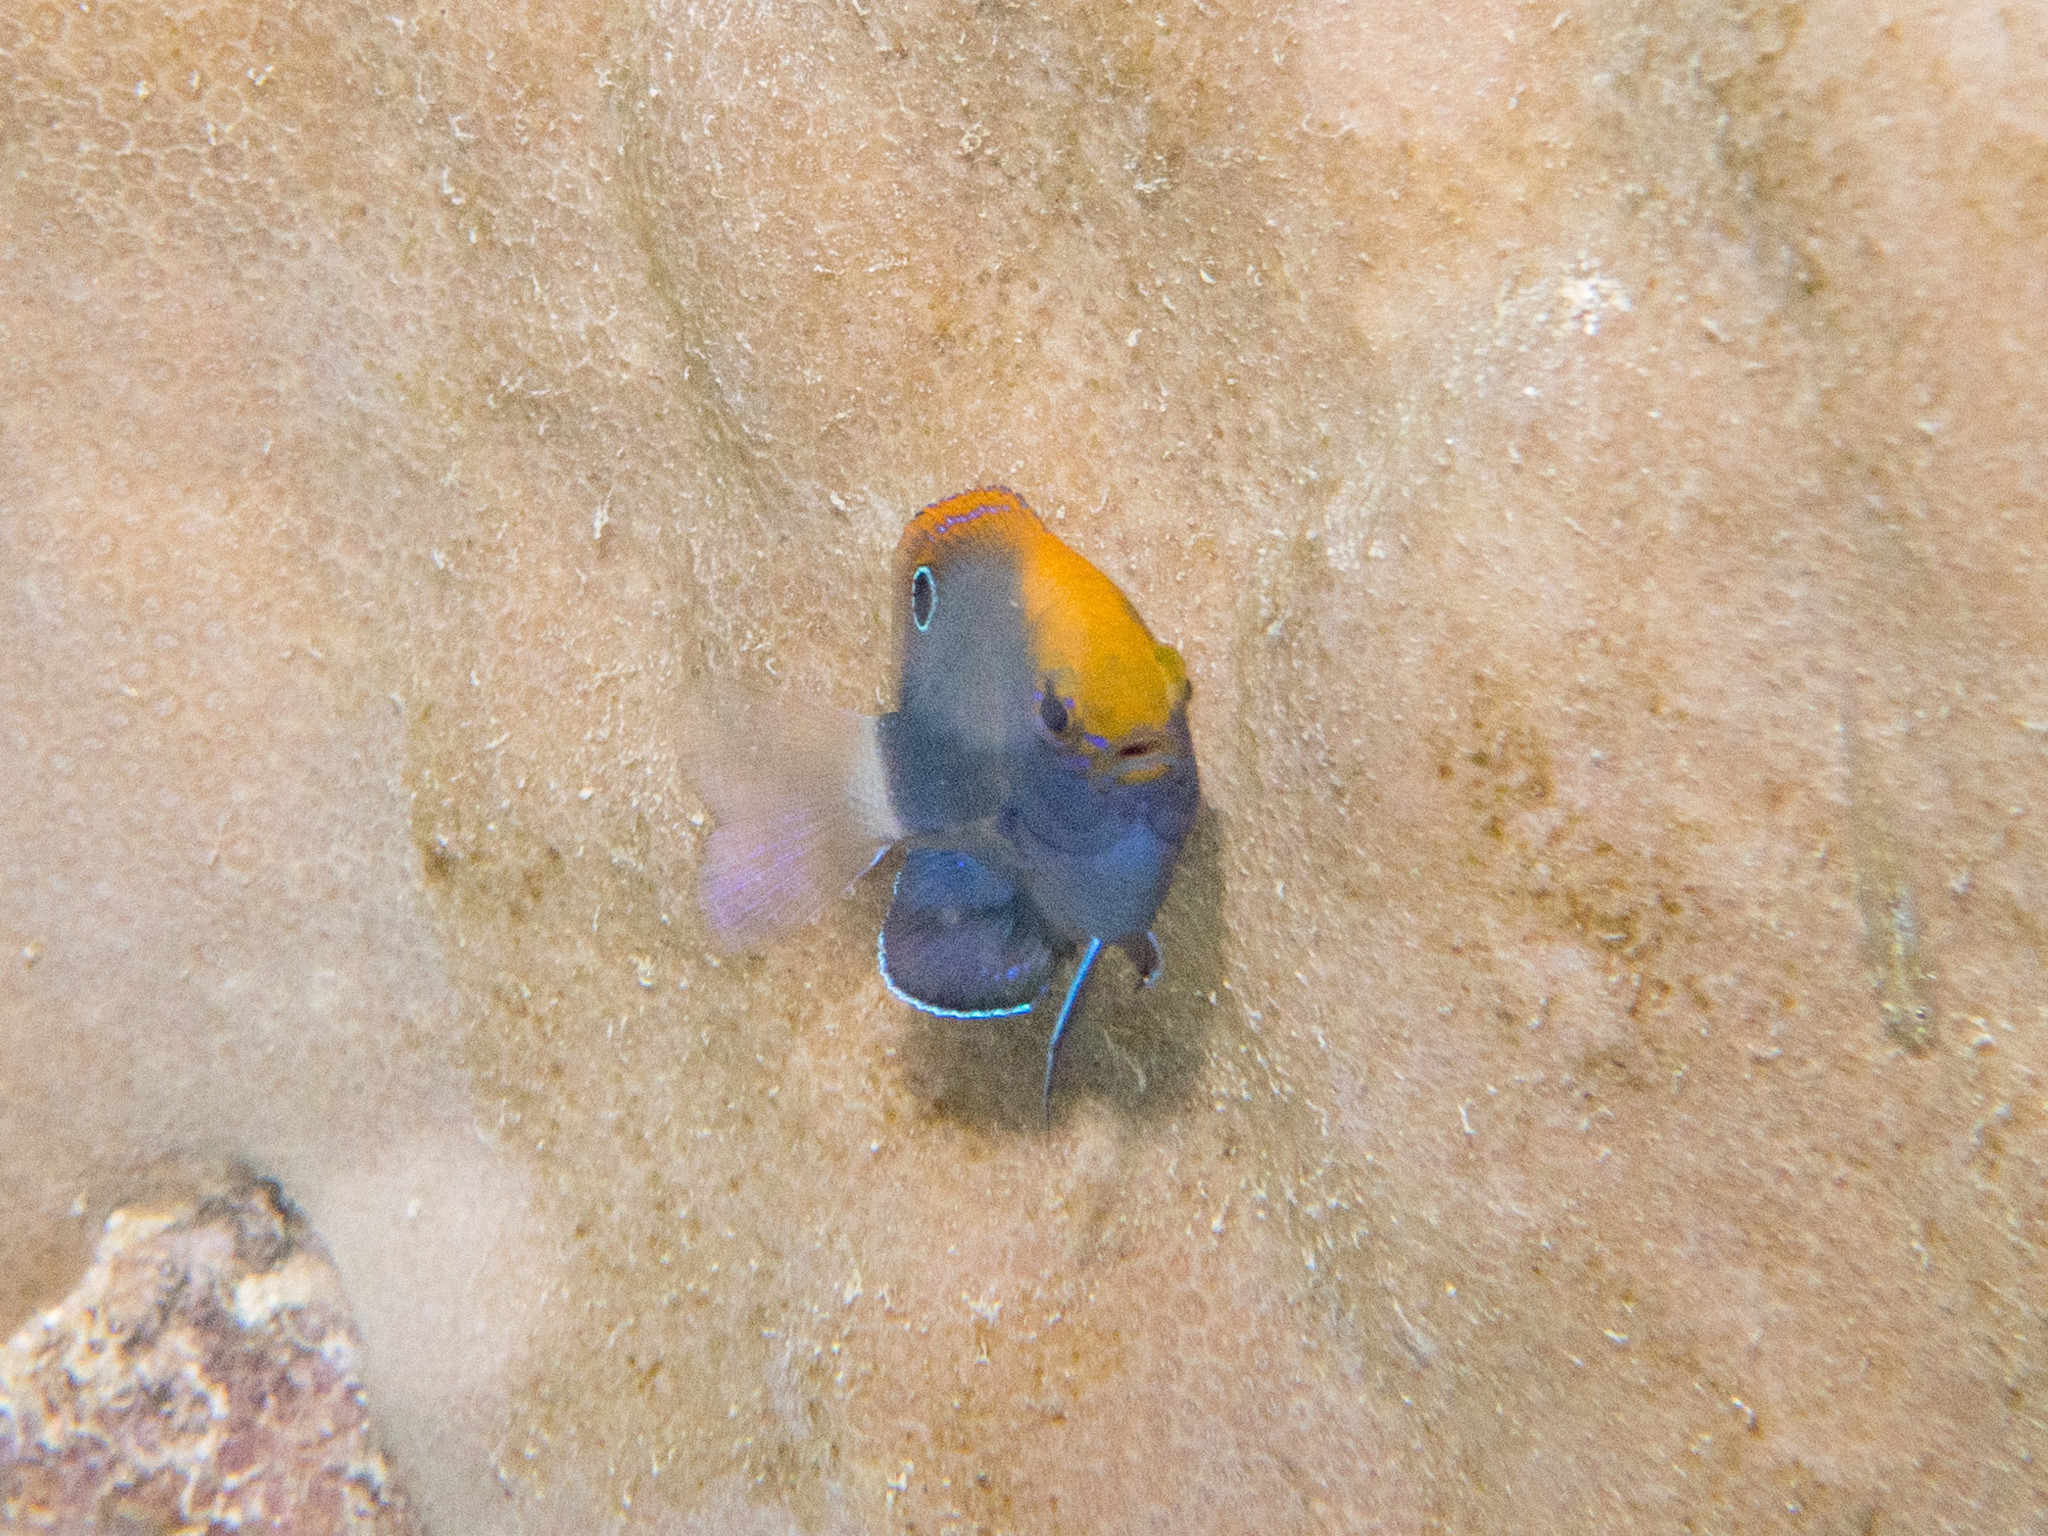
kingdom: Animalia
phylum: Chordata
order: Perciformes
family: Pomacentridae
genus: Pomacentrus
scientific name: Pomacentrus chrysurus
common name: White-tail damsel
